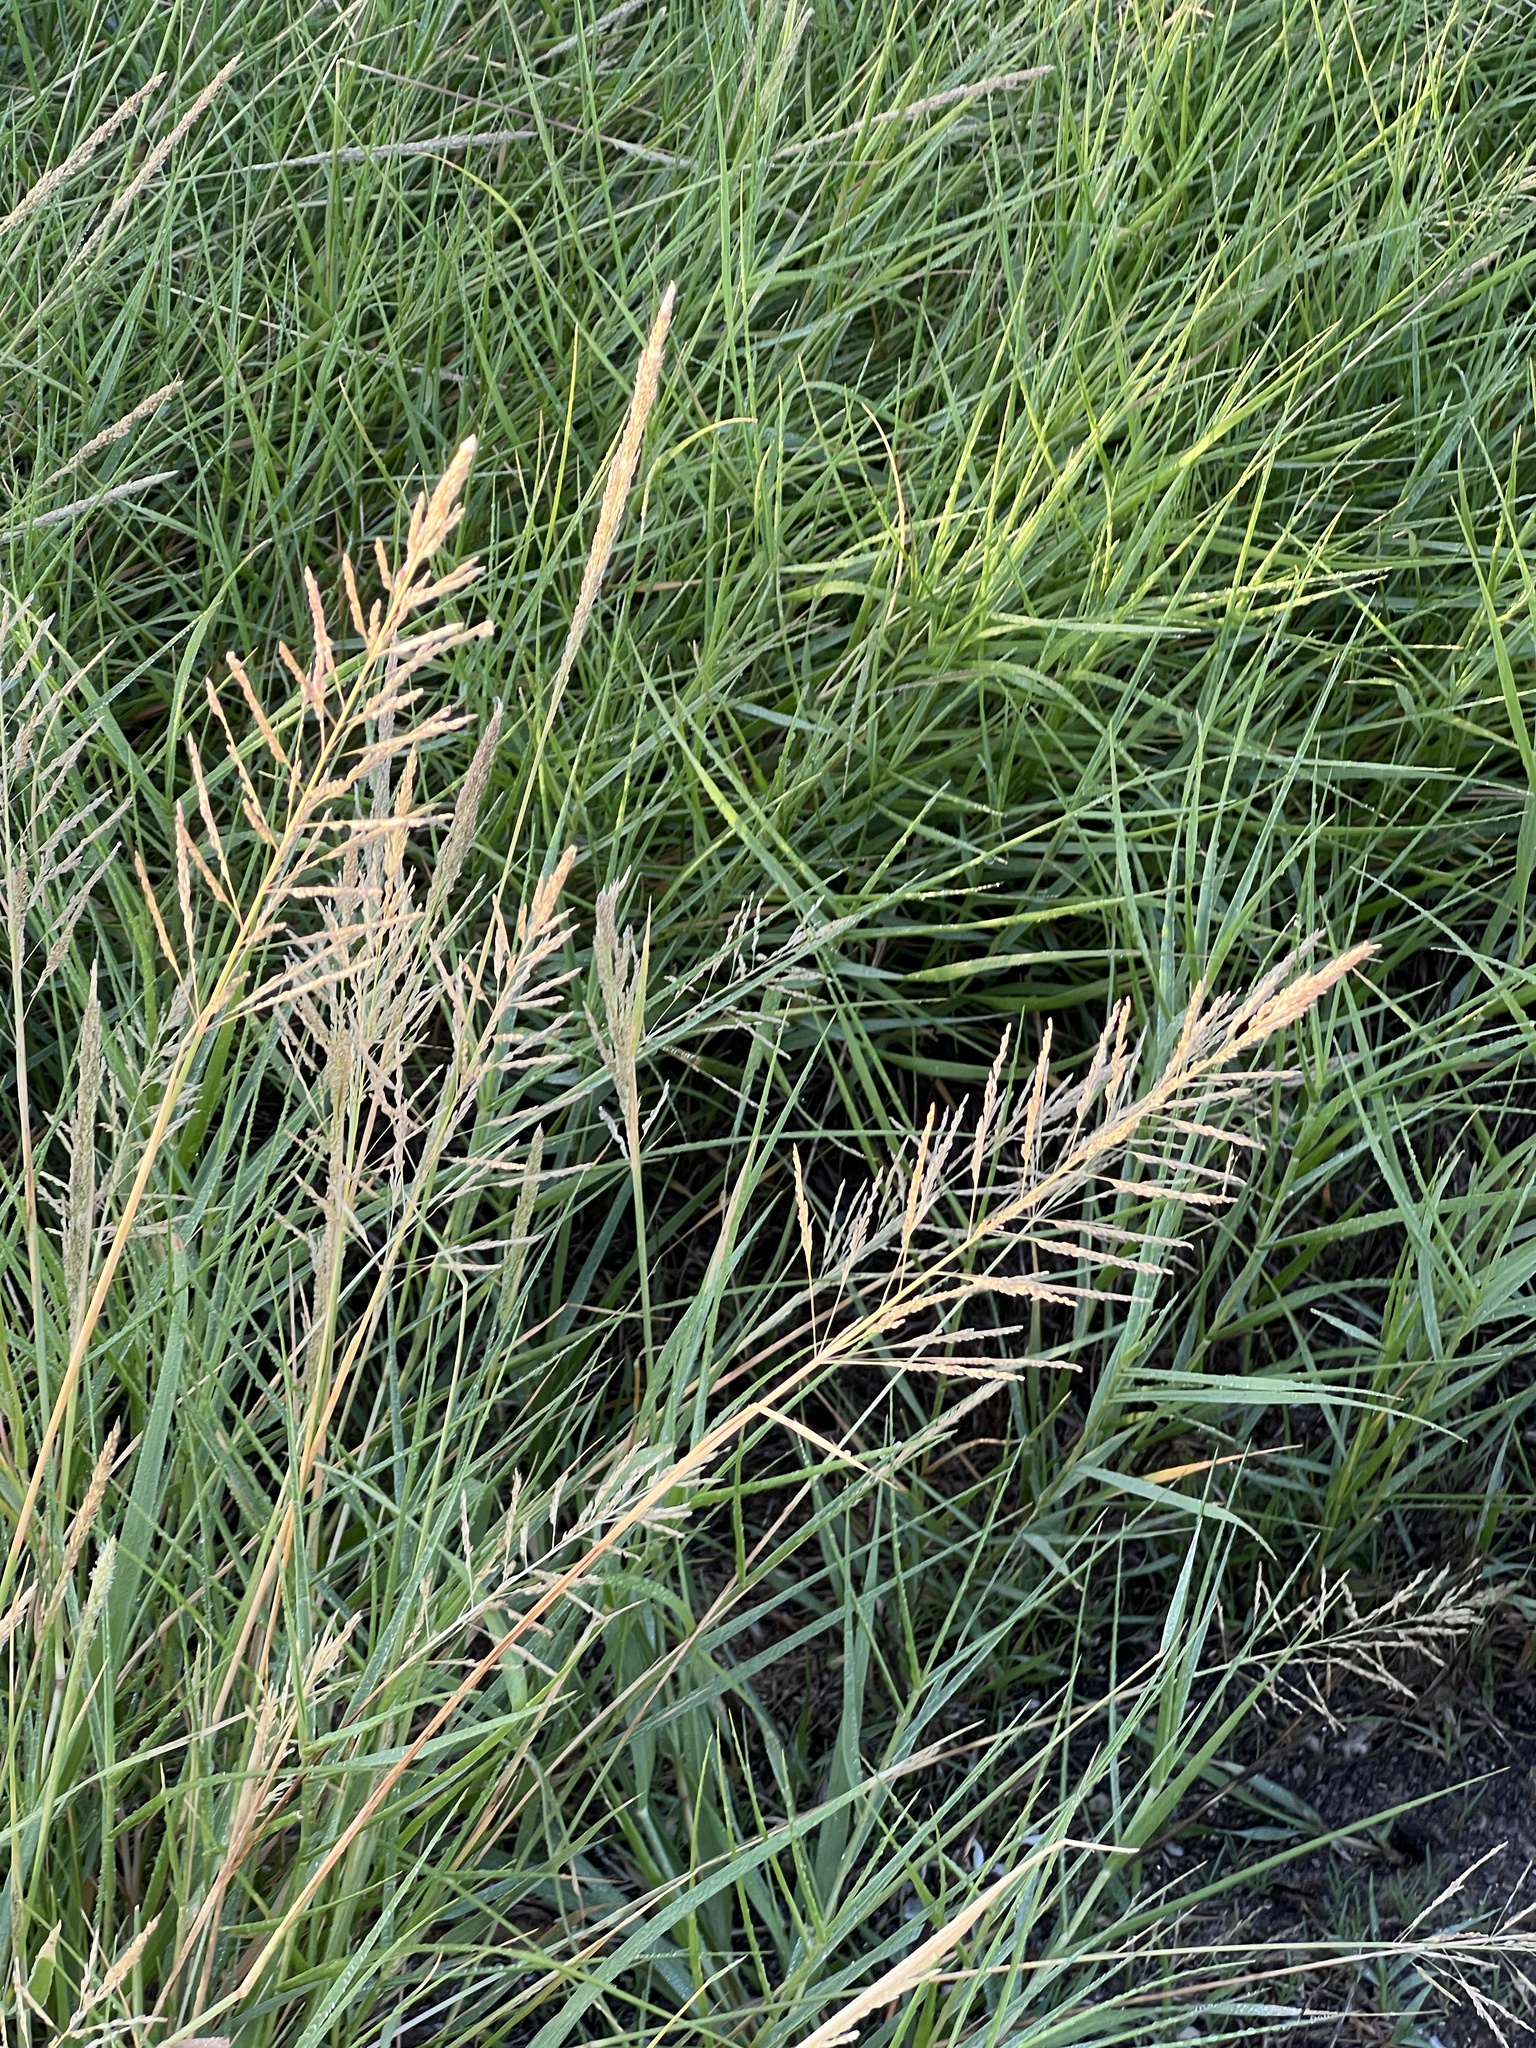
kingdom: Plantae
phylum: Tracheophyta
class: Liliopsida
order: Poales
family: Poaceae
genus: Sporobolus
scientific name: Sporobolus pyramidatus
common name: Whorled dropseed
